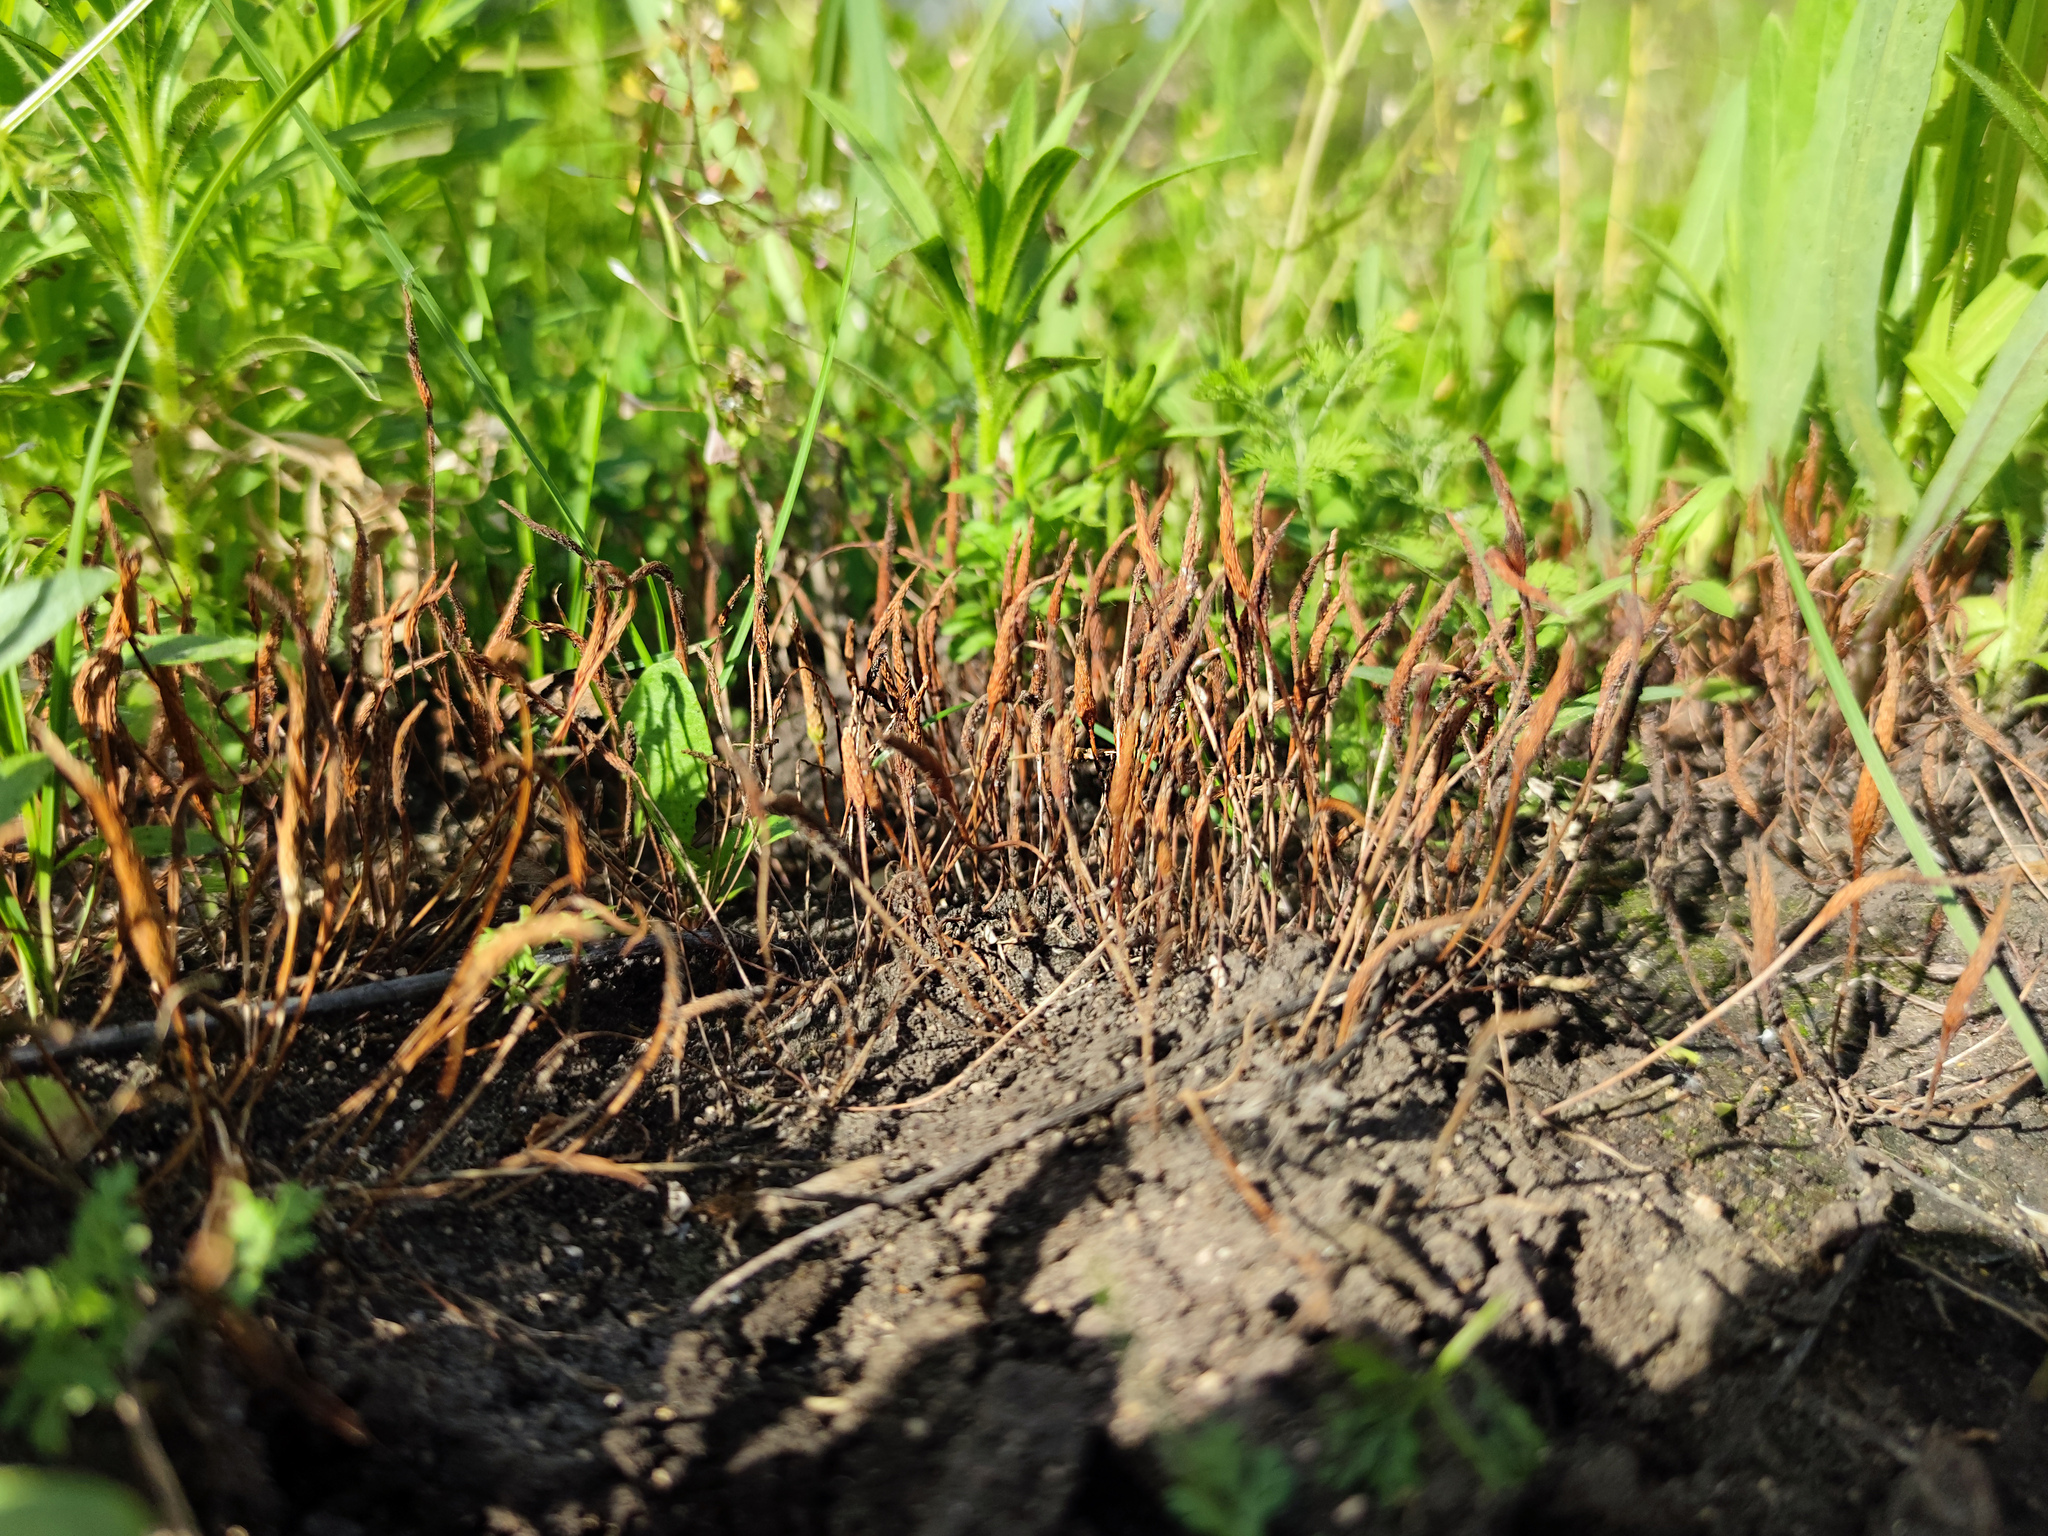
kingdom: Plantae
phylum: Tracheophyta
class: Magnoliopsida
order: Ranunculales
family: Ranunculaceae
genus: Myosurus
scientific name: Myosurus minimus
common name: Mousetail
